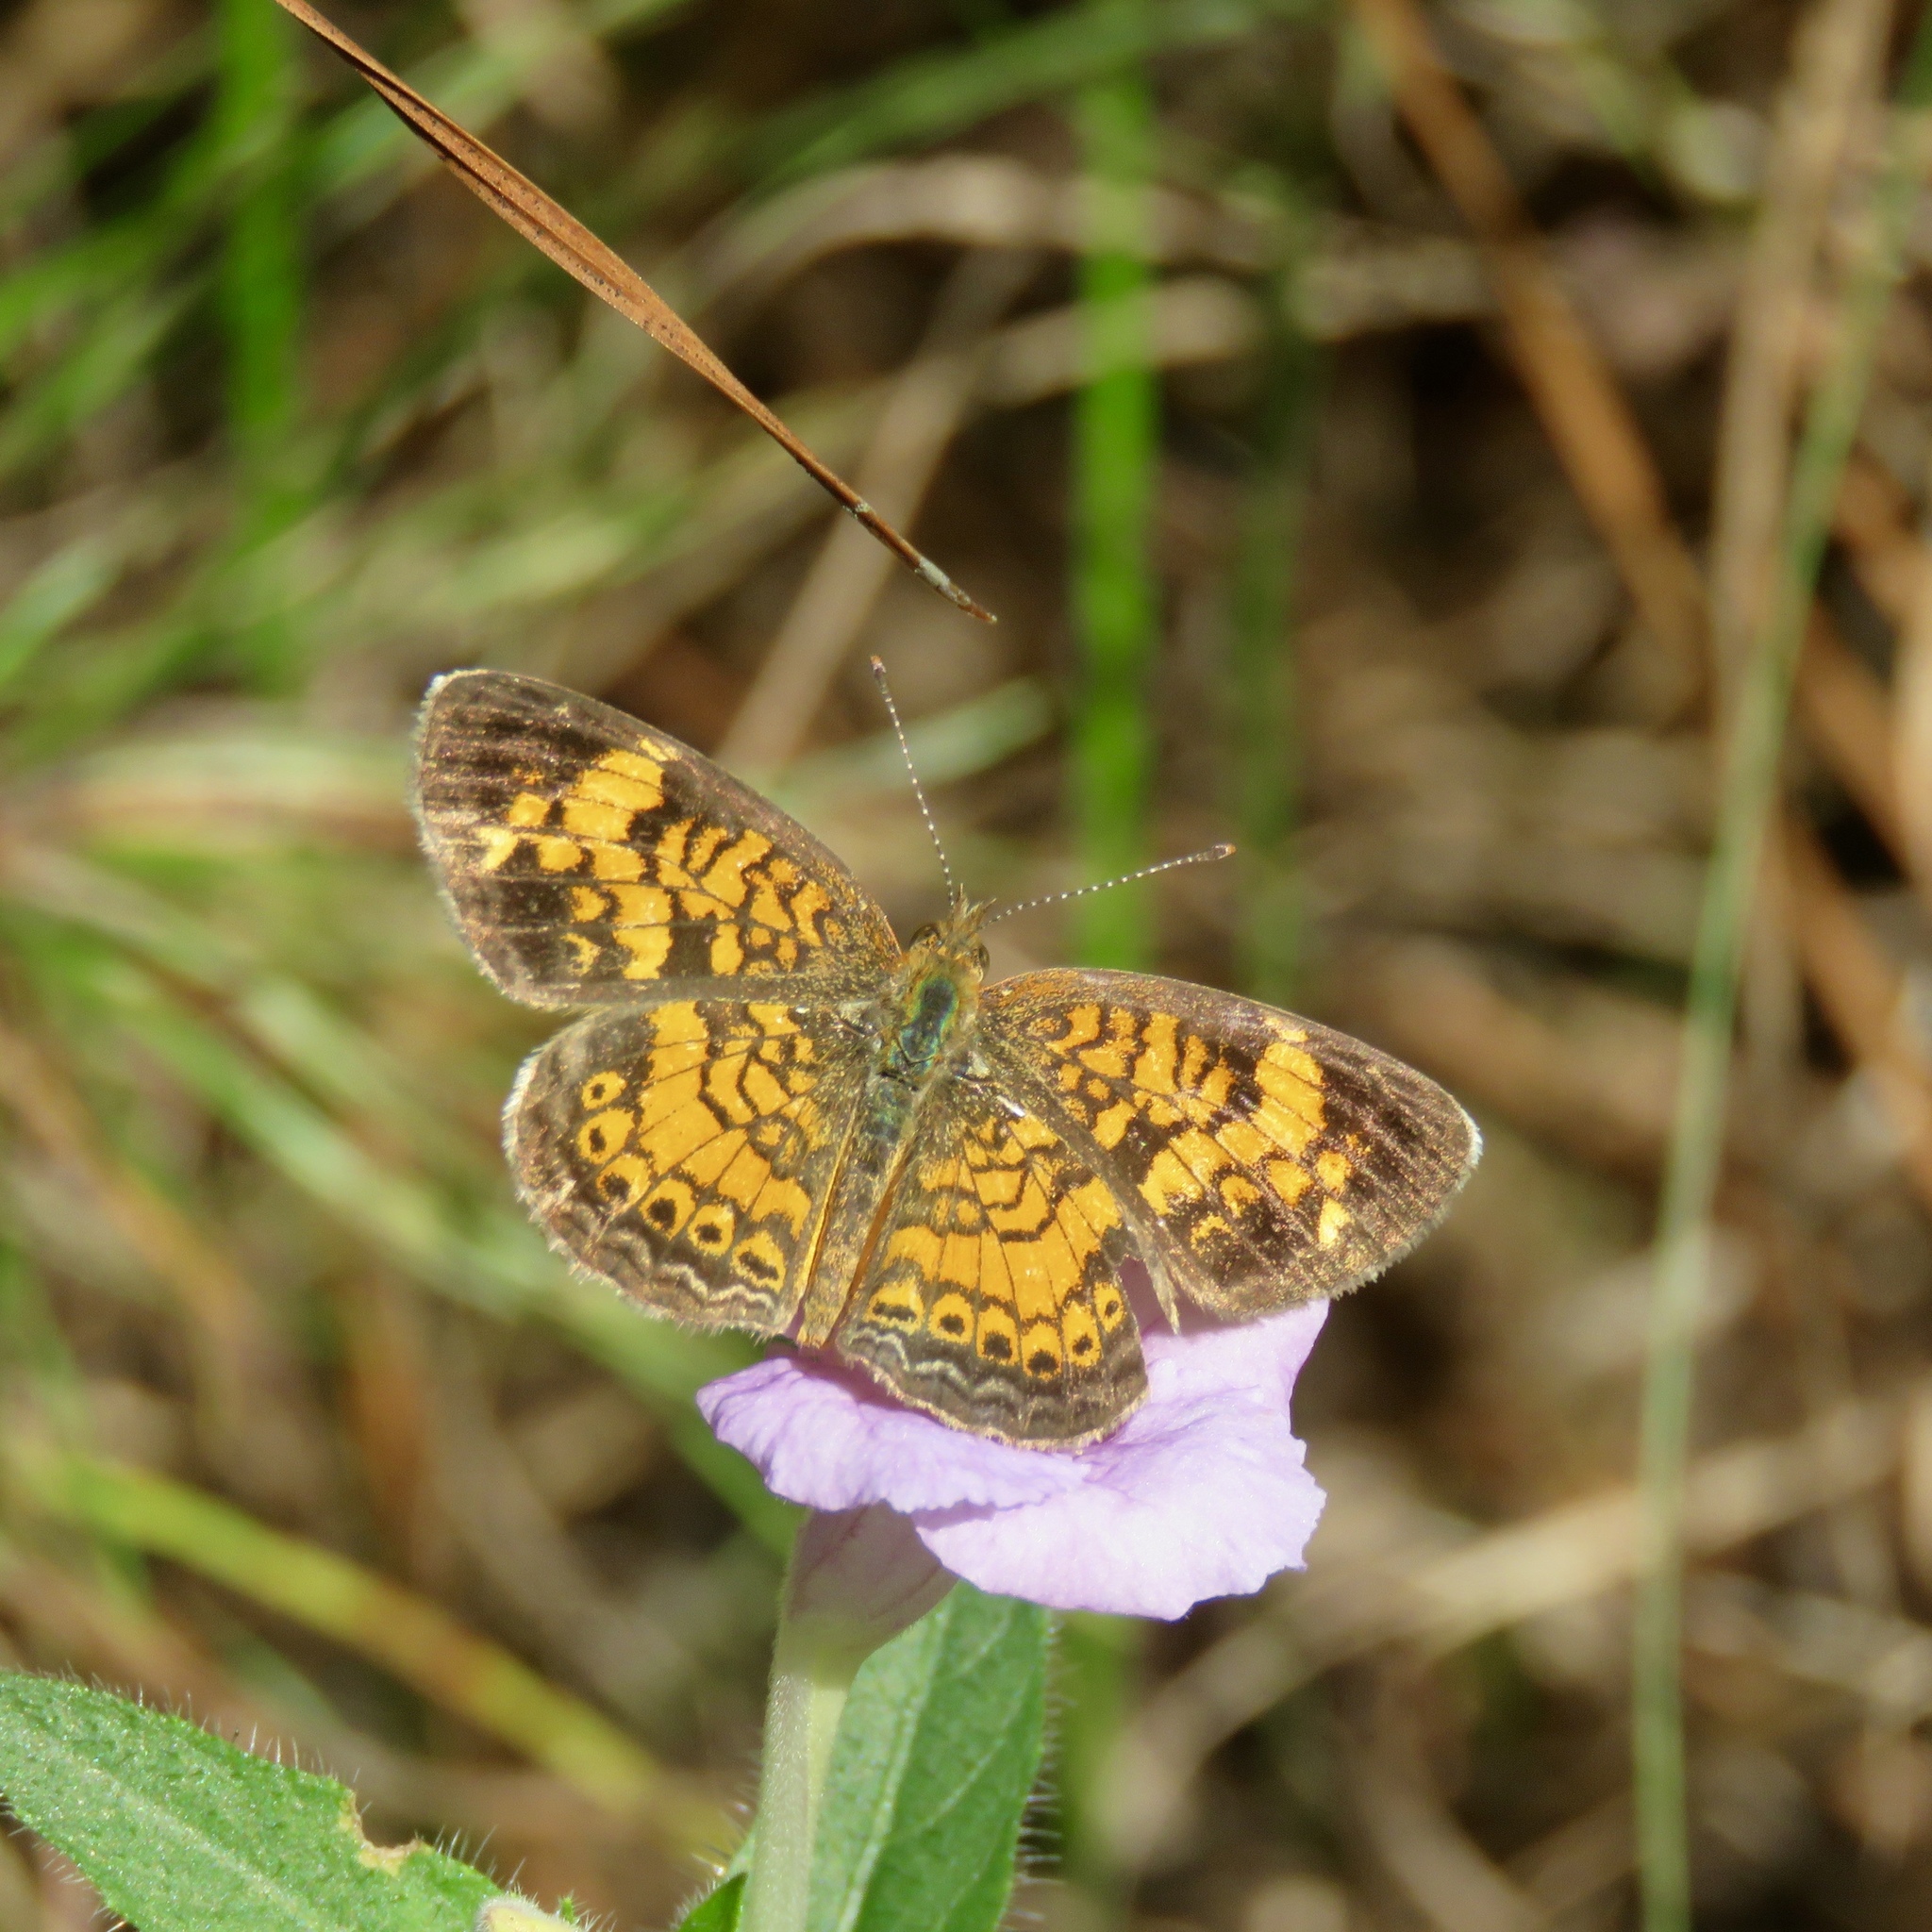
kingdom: Animalia
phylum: Arthropoda
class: Insecta
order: Lepidoptera
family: Nymphalidae
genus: Phyciodes
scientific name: Phyciodes tharos
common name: Pearl crescent
